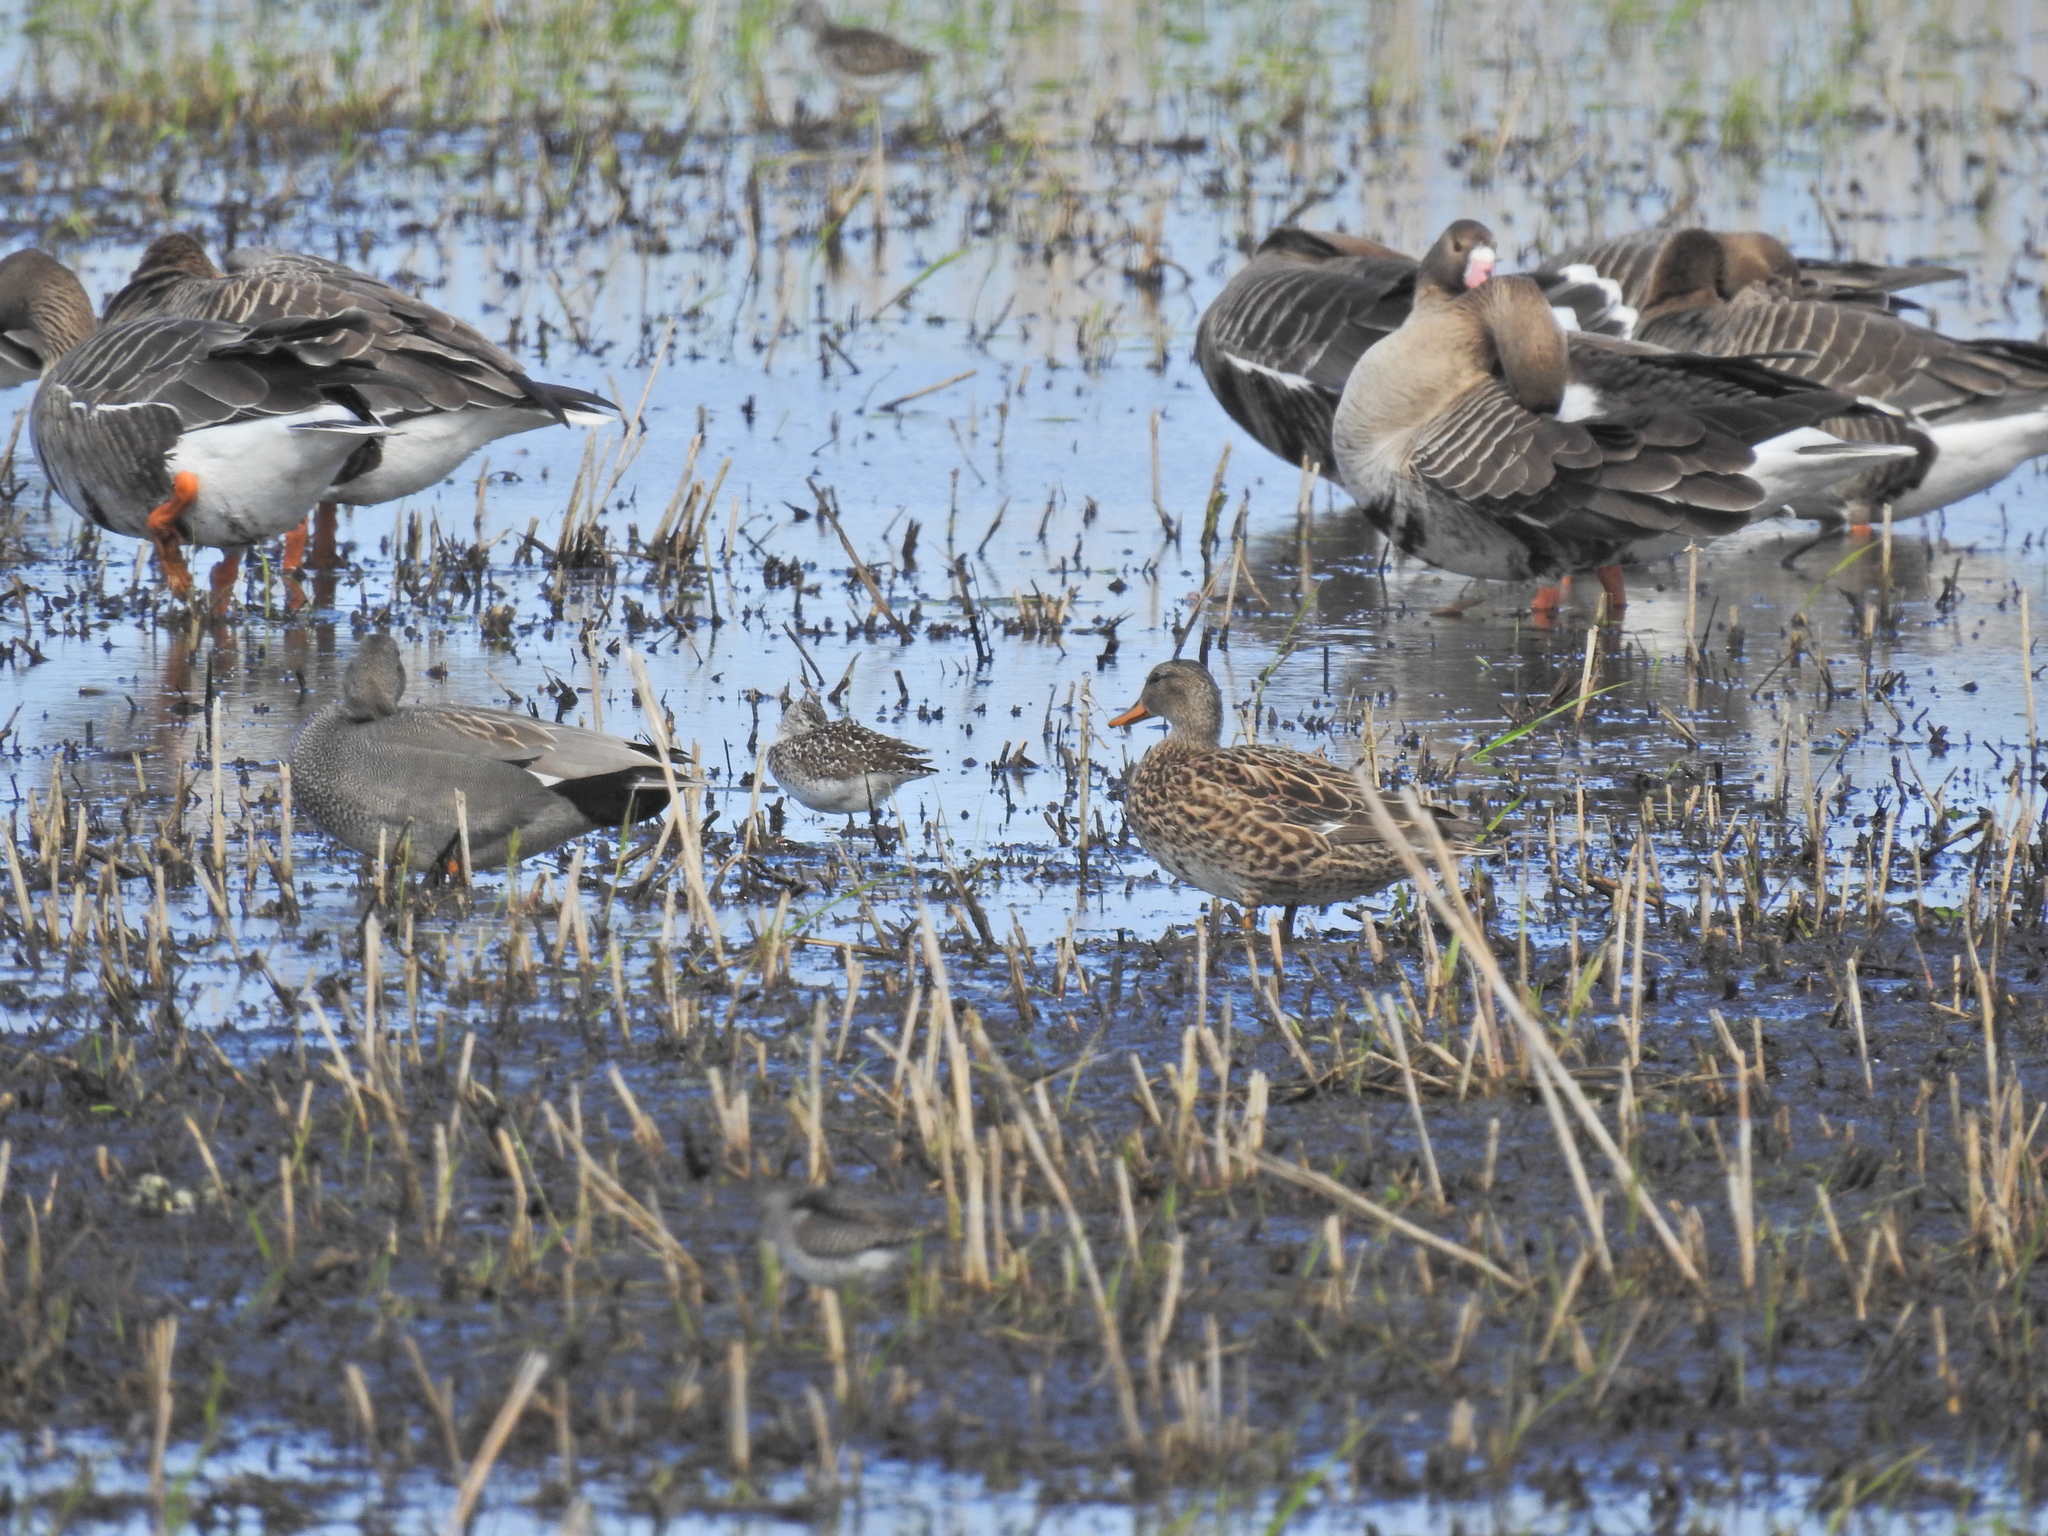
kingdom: Animalia
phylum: Chordata
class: Aves
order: Anseriformes
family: Anatidae
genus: Mareca
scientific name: Mareca strepera
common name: Gadwall
